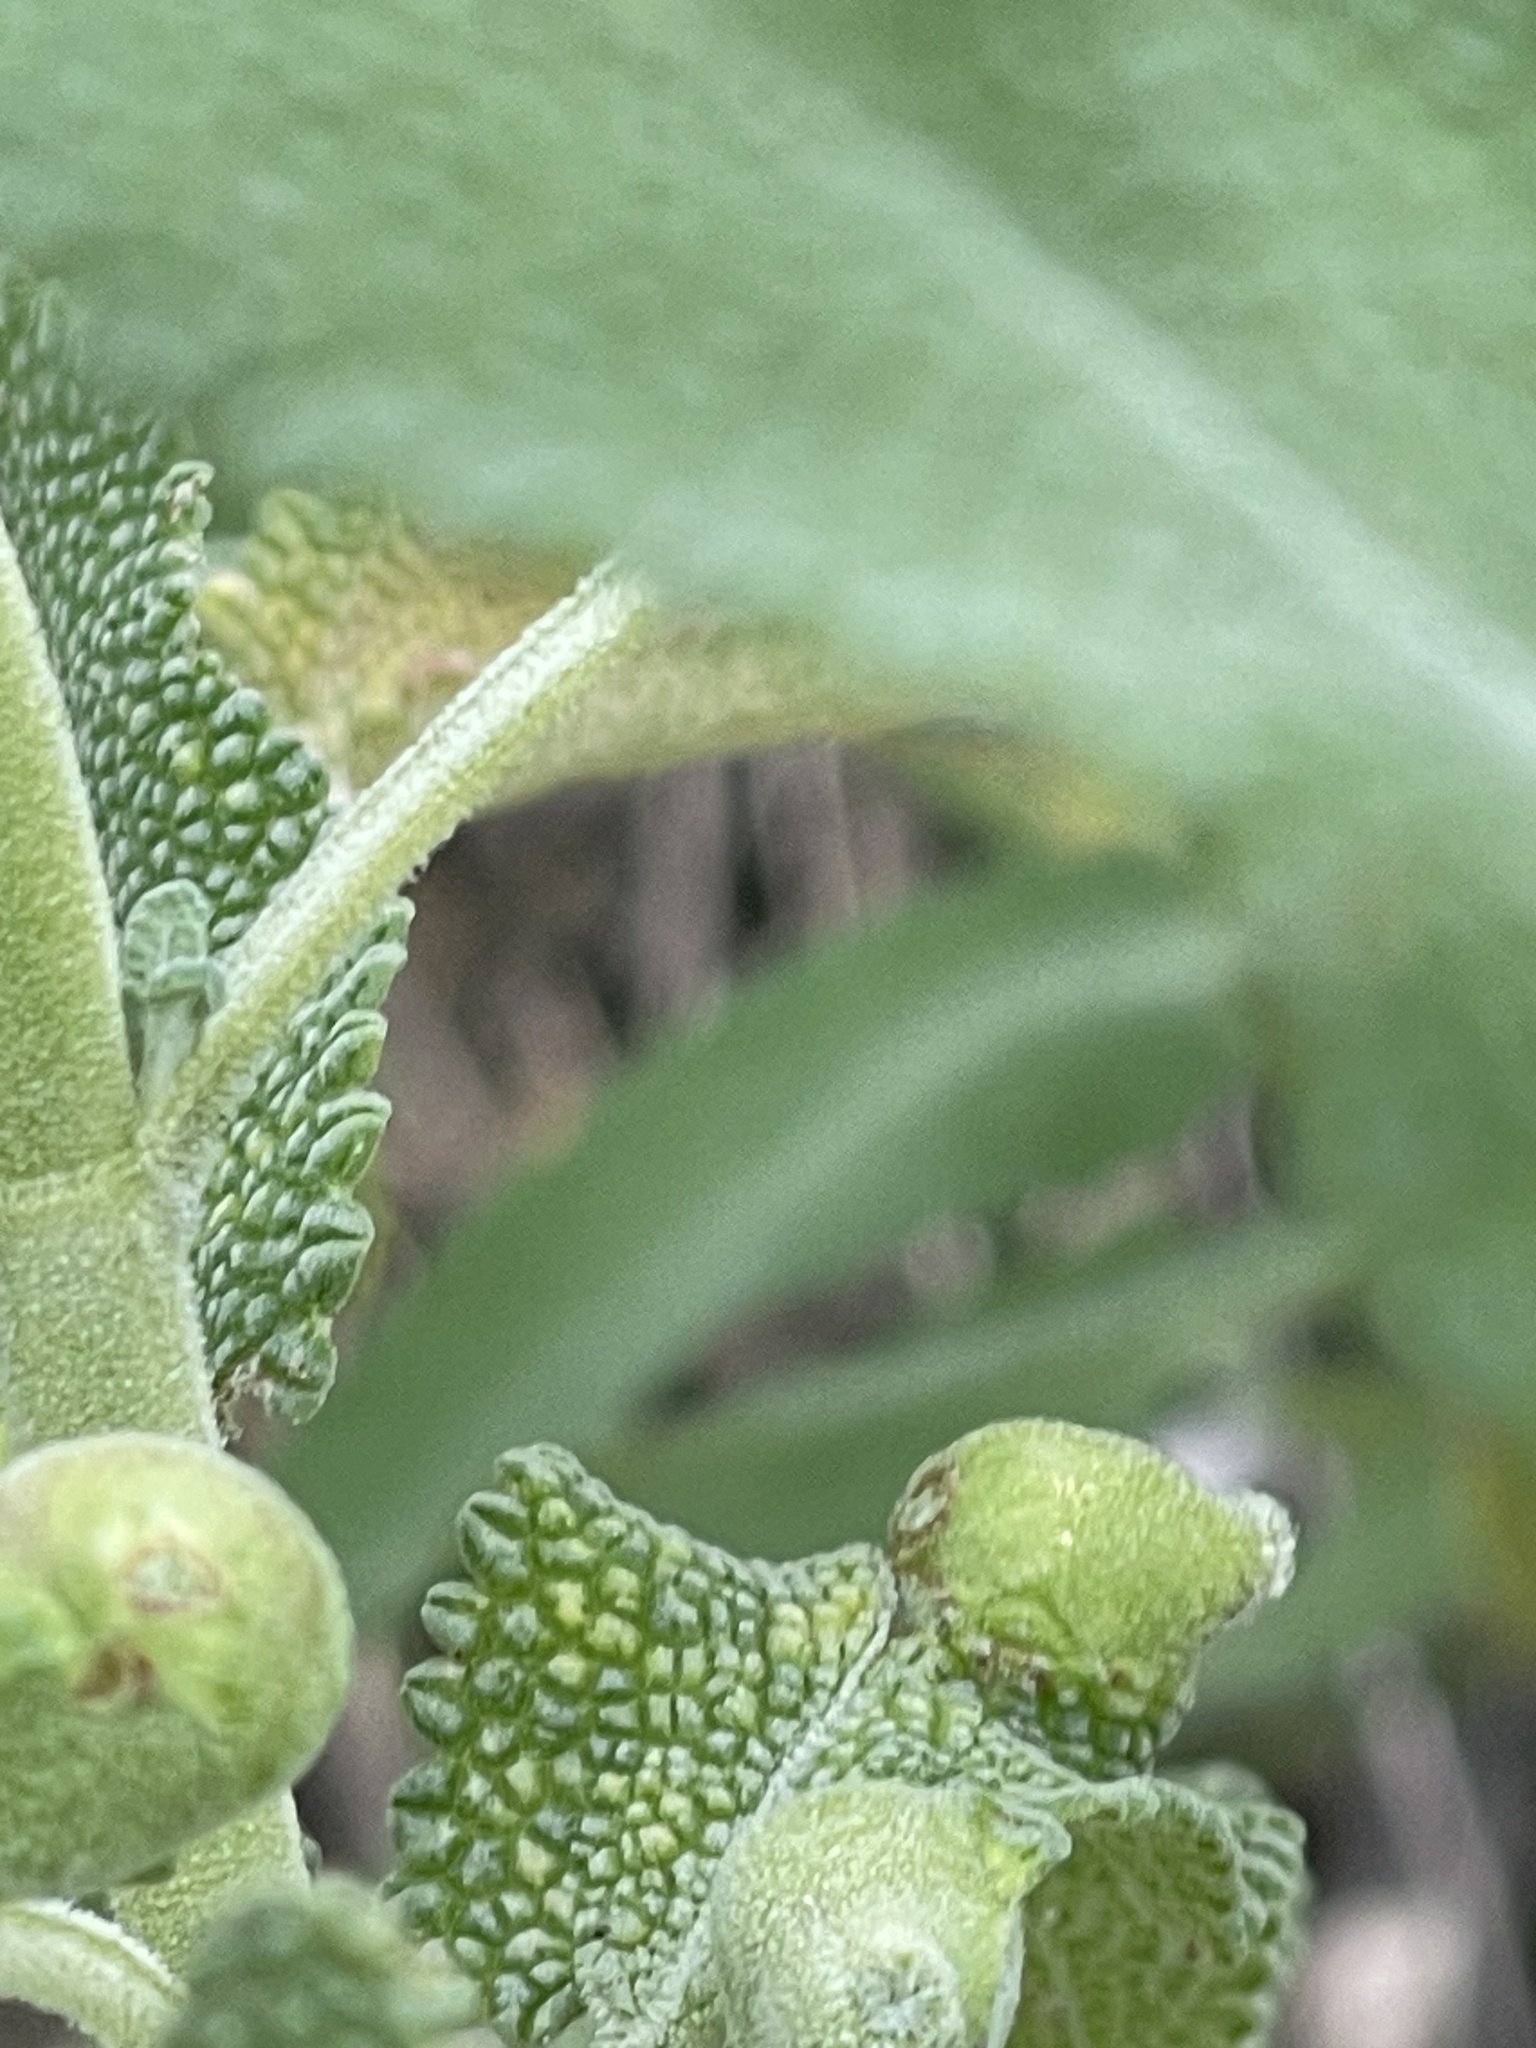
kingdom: Animalia
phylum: Arthropoda
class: Insecta
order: Diptera
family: Cecidomyiidae
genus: Rhopalomyia
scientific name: Rhopalomyia audibertiae
